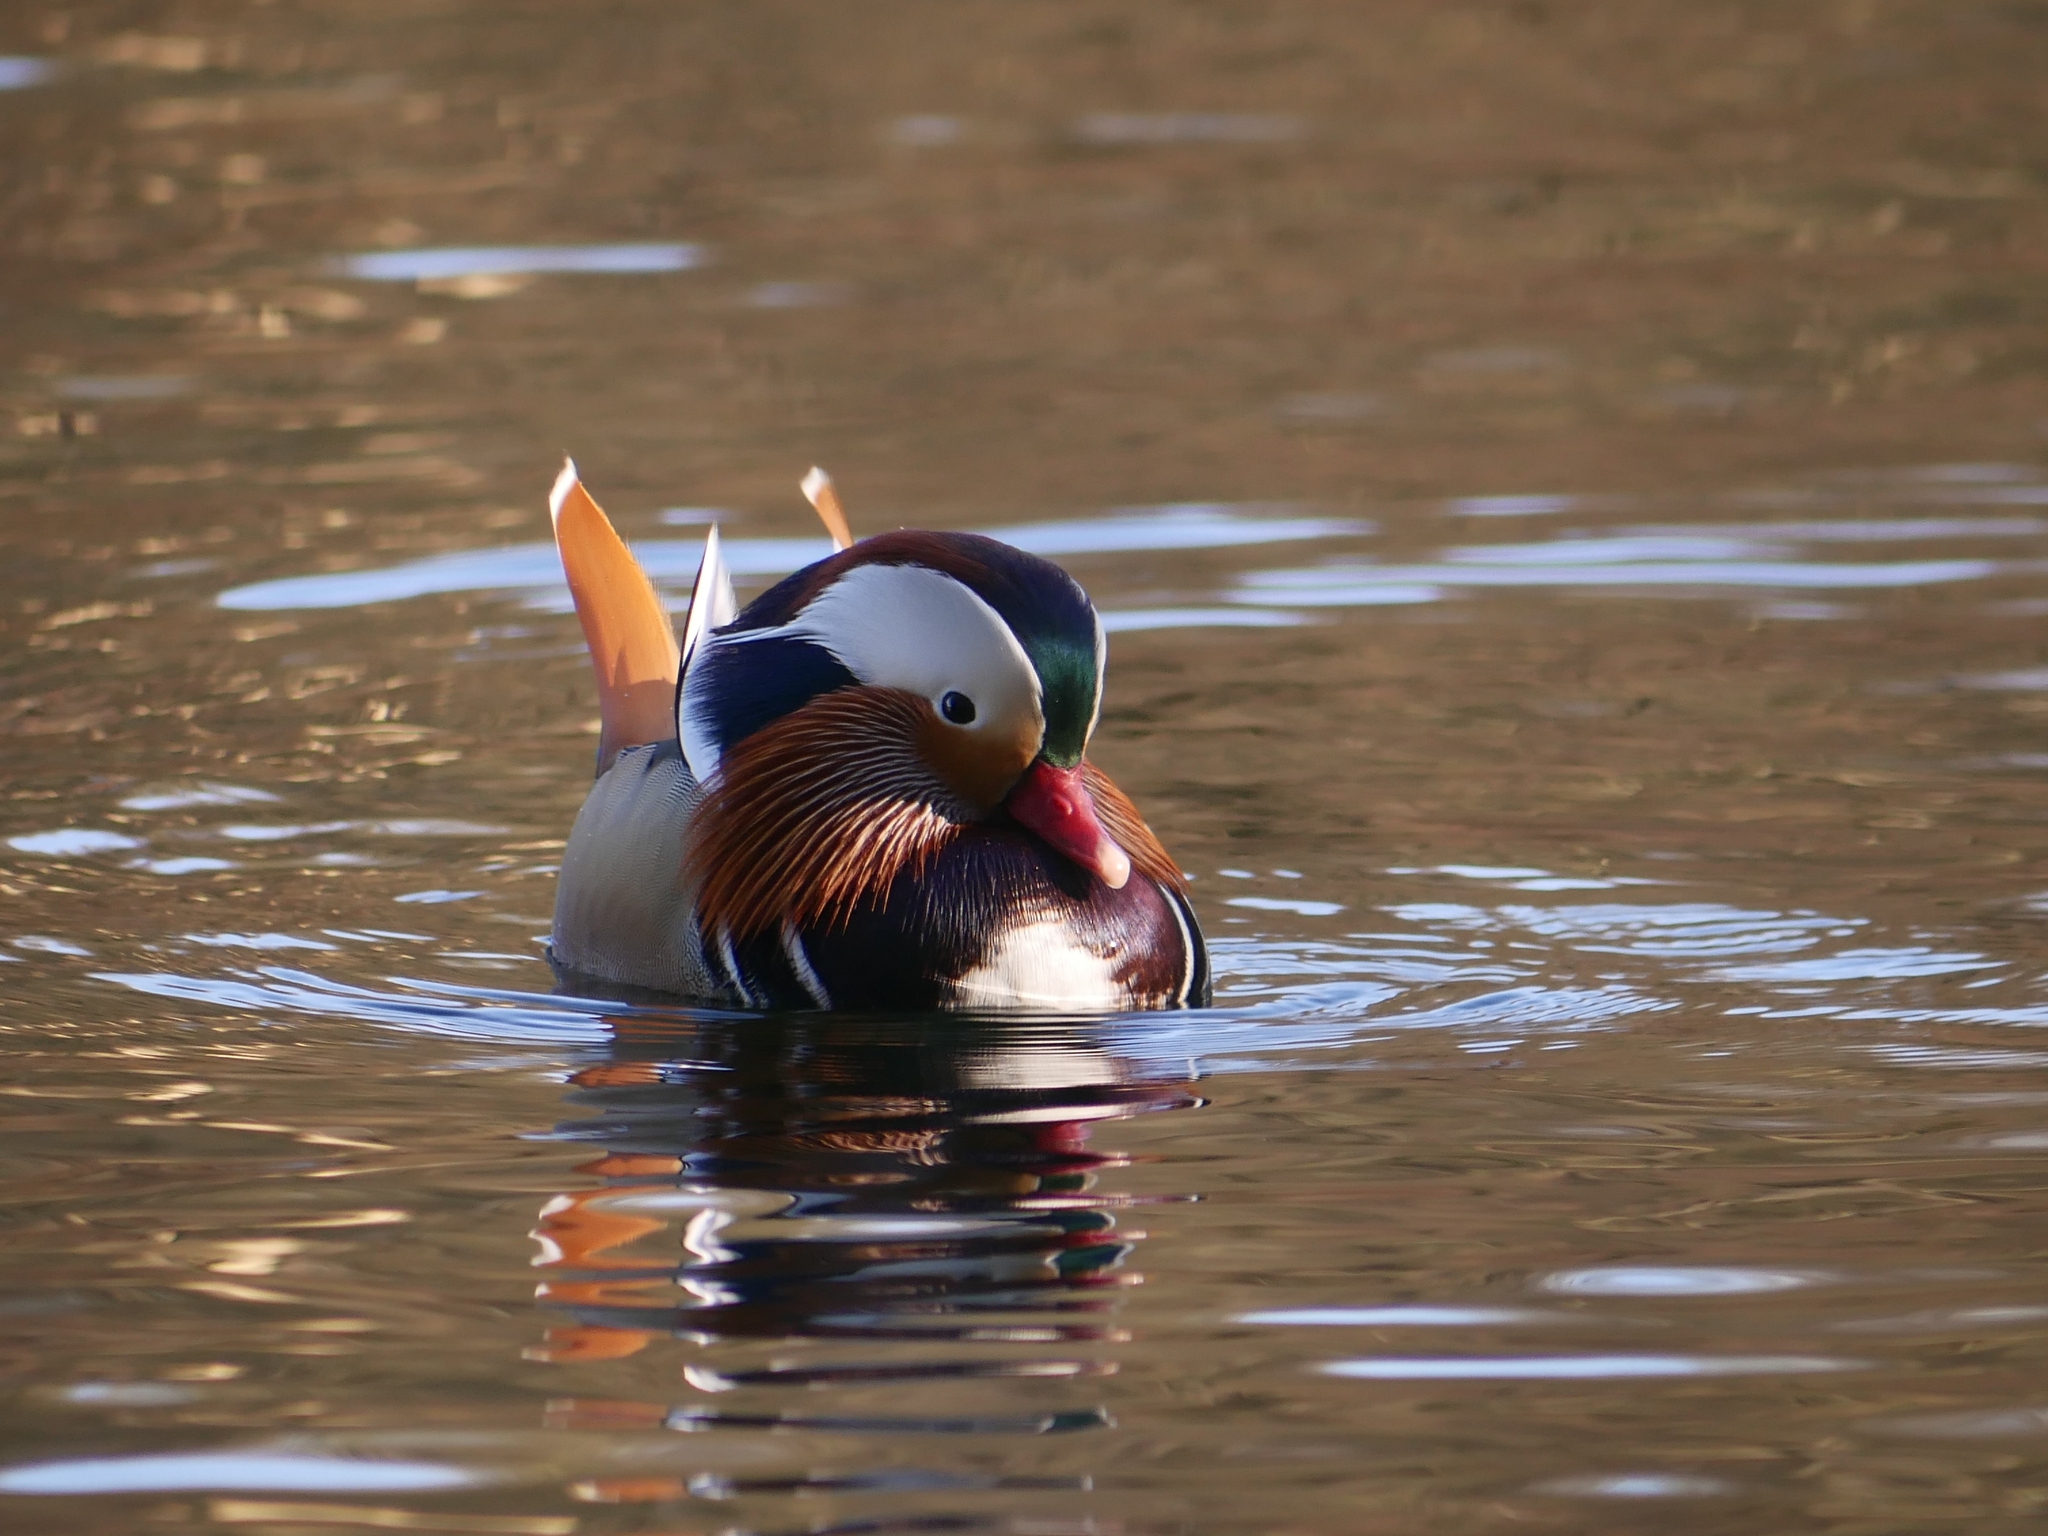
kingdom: Animalia
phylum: Chordata
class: Aves
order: Anseriformes
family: Anatidae
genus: Aix
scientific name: Aix galericulata
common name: Mandarin duck
